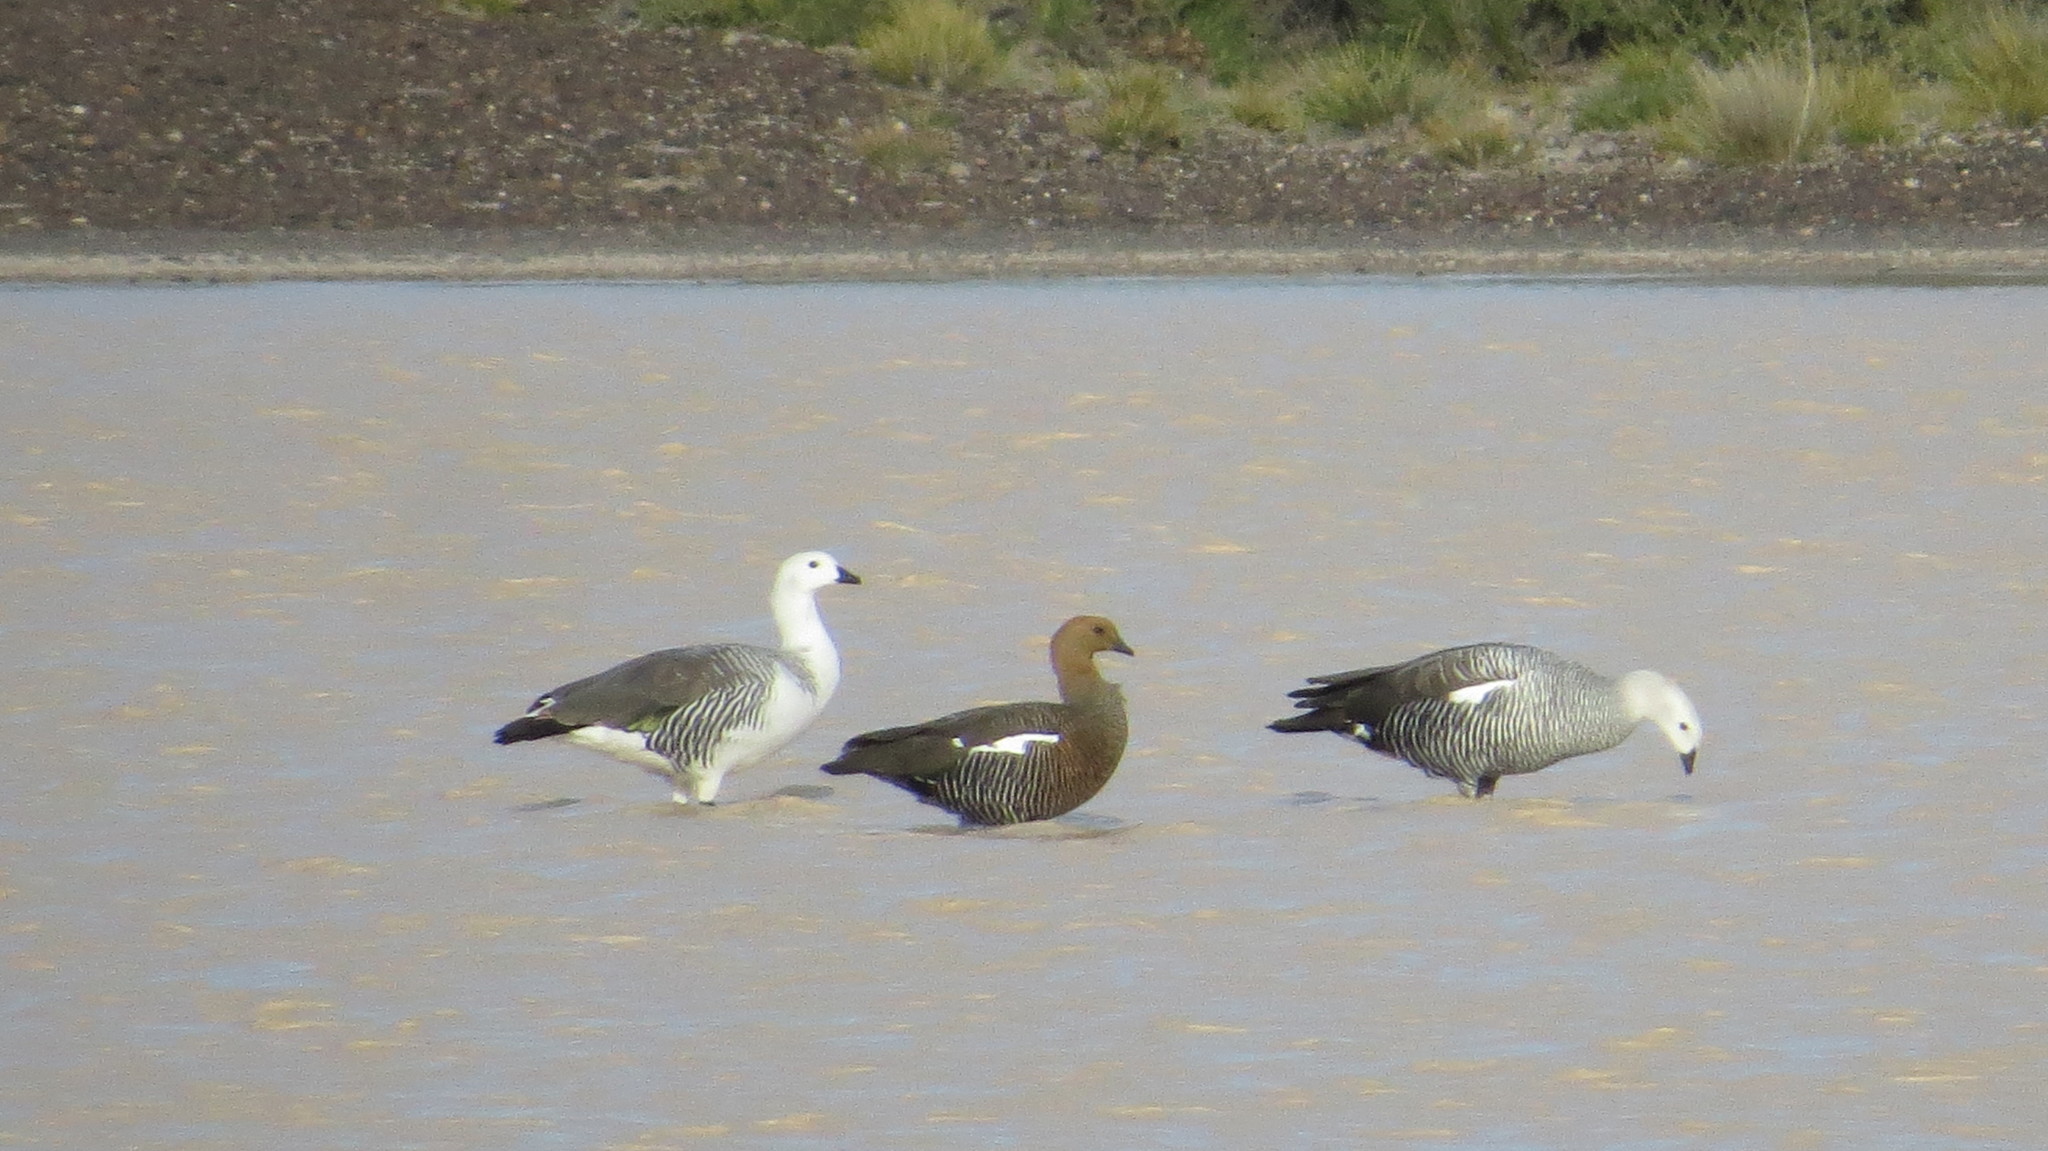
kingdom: Animalia
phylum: Chordata
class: Aves
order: Anseriformes
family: Anatidae
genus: Chloephaga
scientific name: Chloephaga picta
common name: Upland goose
